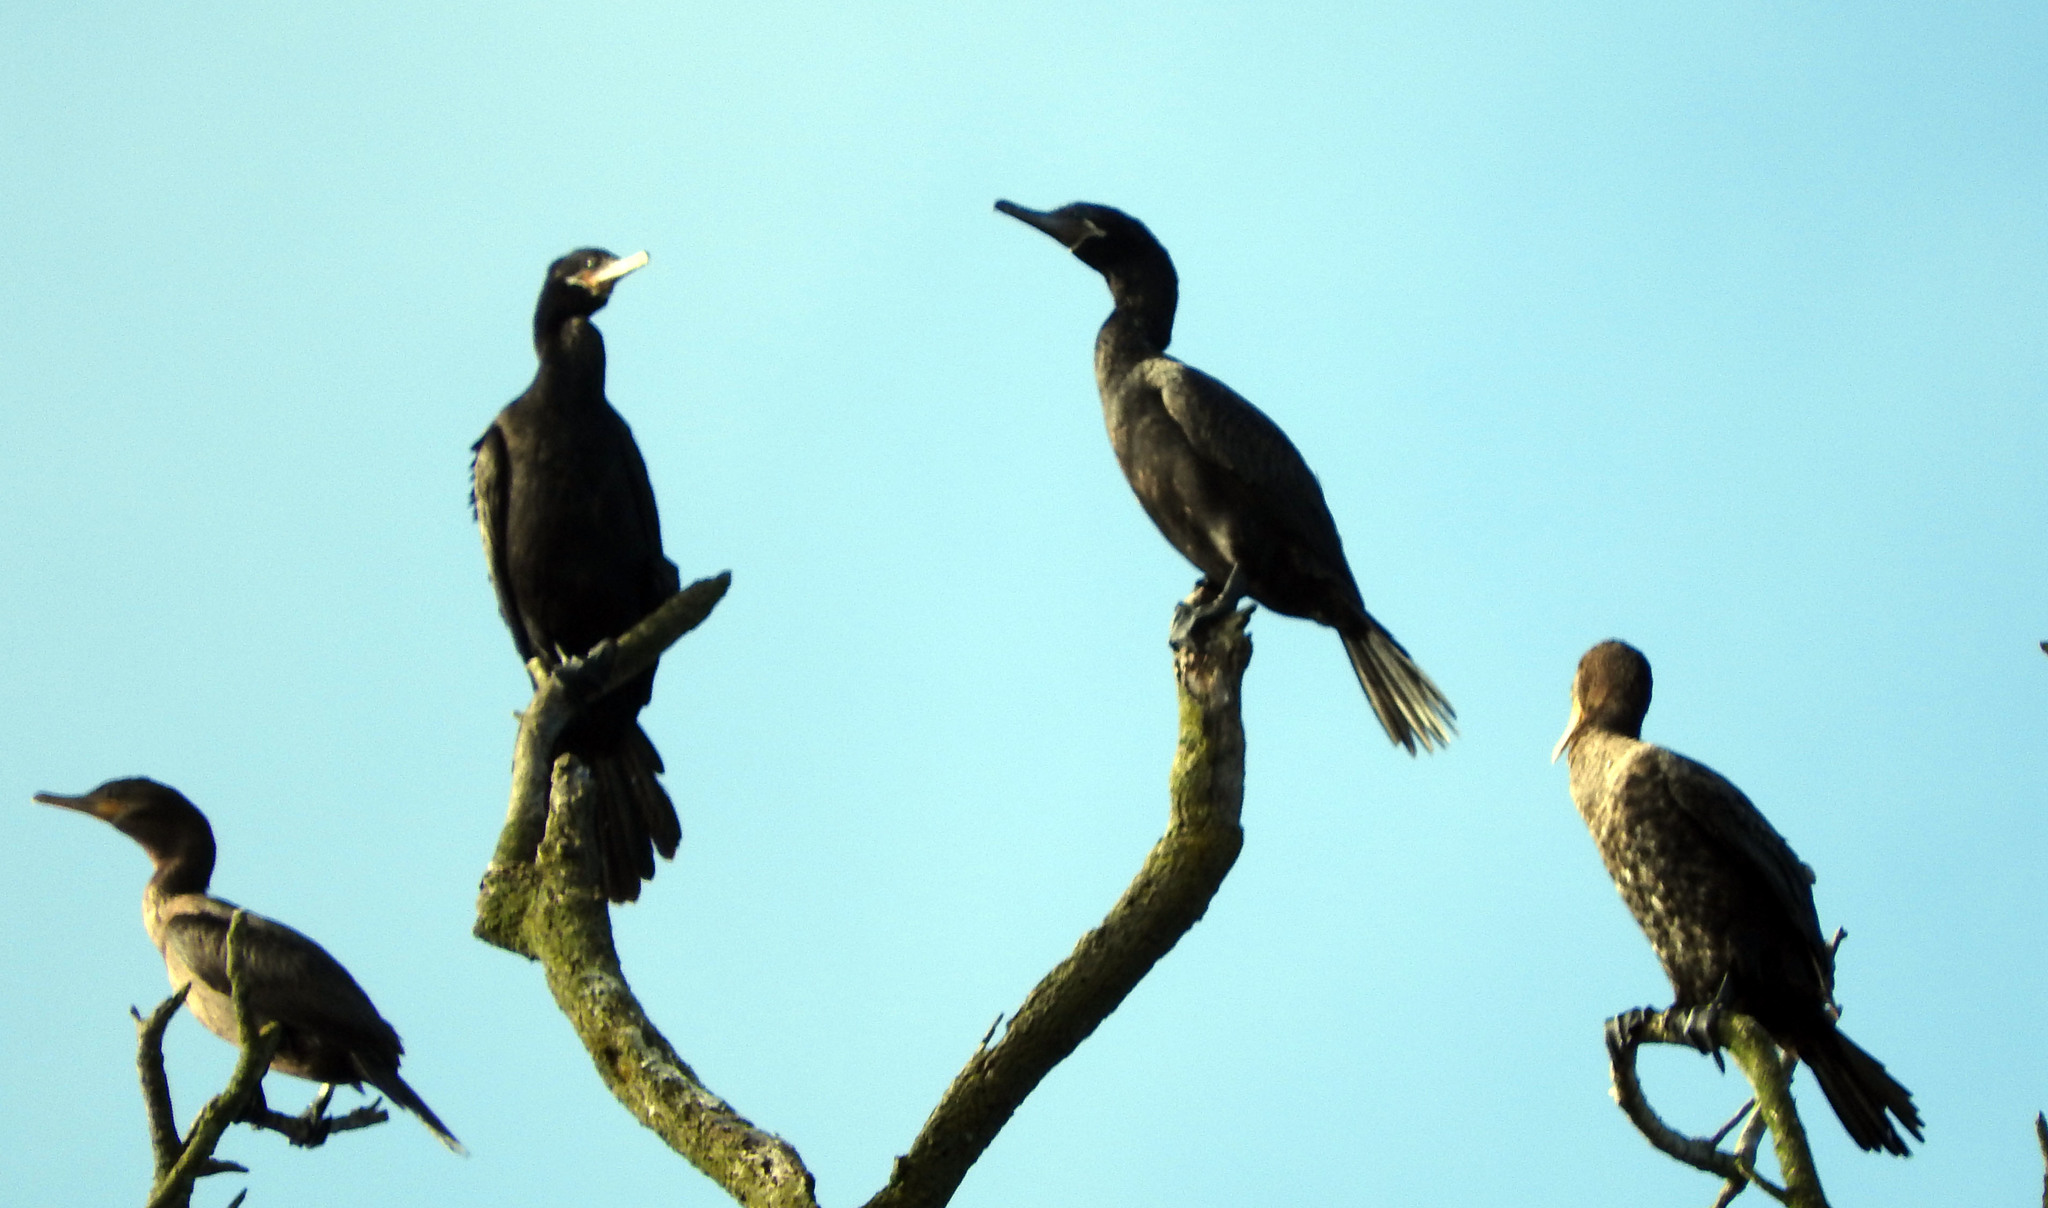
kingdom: Animalia
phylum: Chordata
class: Aves
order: Suliformes
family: Phalacrocoracidae
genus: Phalacrocorax
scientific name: Phalacrocorax brasilianus
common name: Neotropic cormorant
